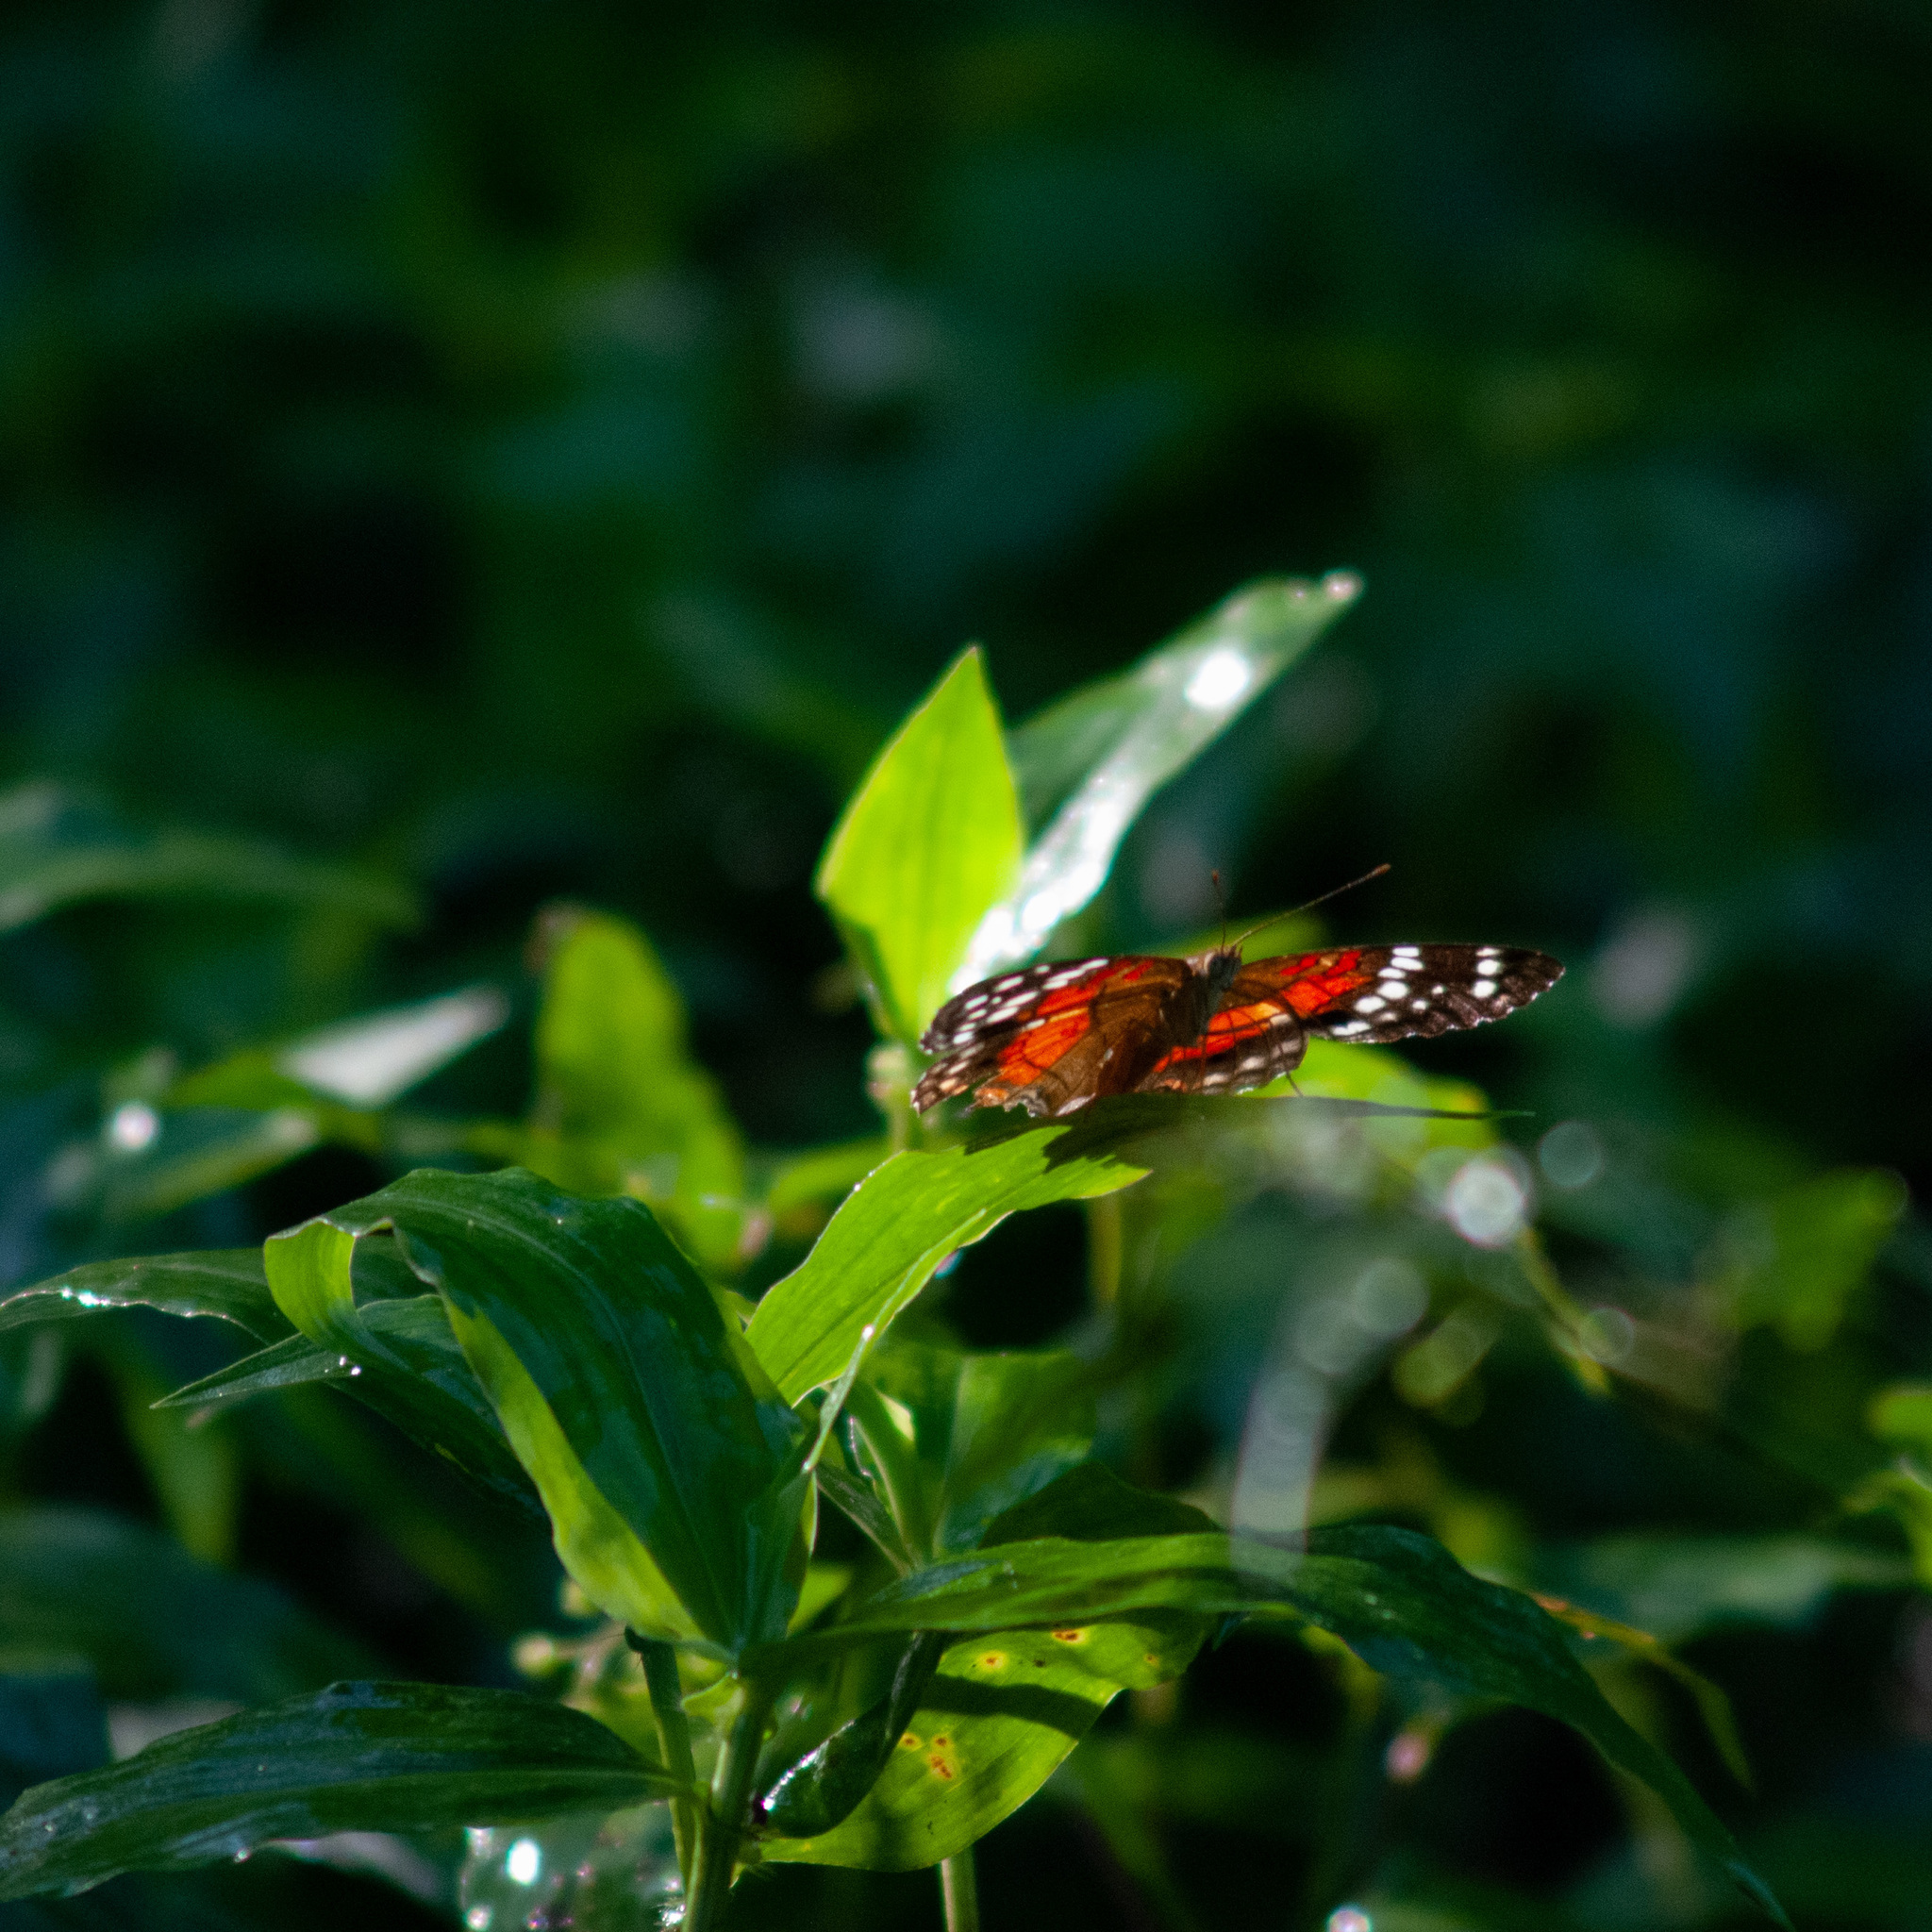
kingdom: Animalia
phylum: Arthropoda
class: Insecta
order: Lepidoptera
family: Nymphalidae
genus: Anartia
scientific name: Anartia amathea
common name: Red peacock
